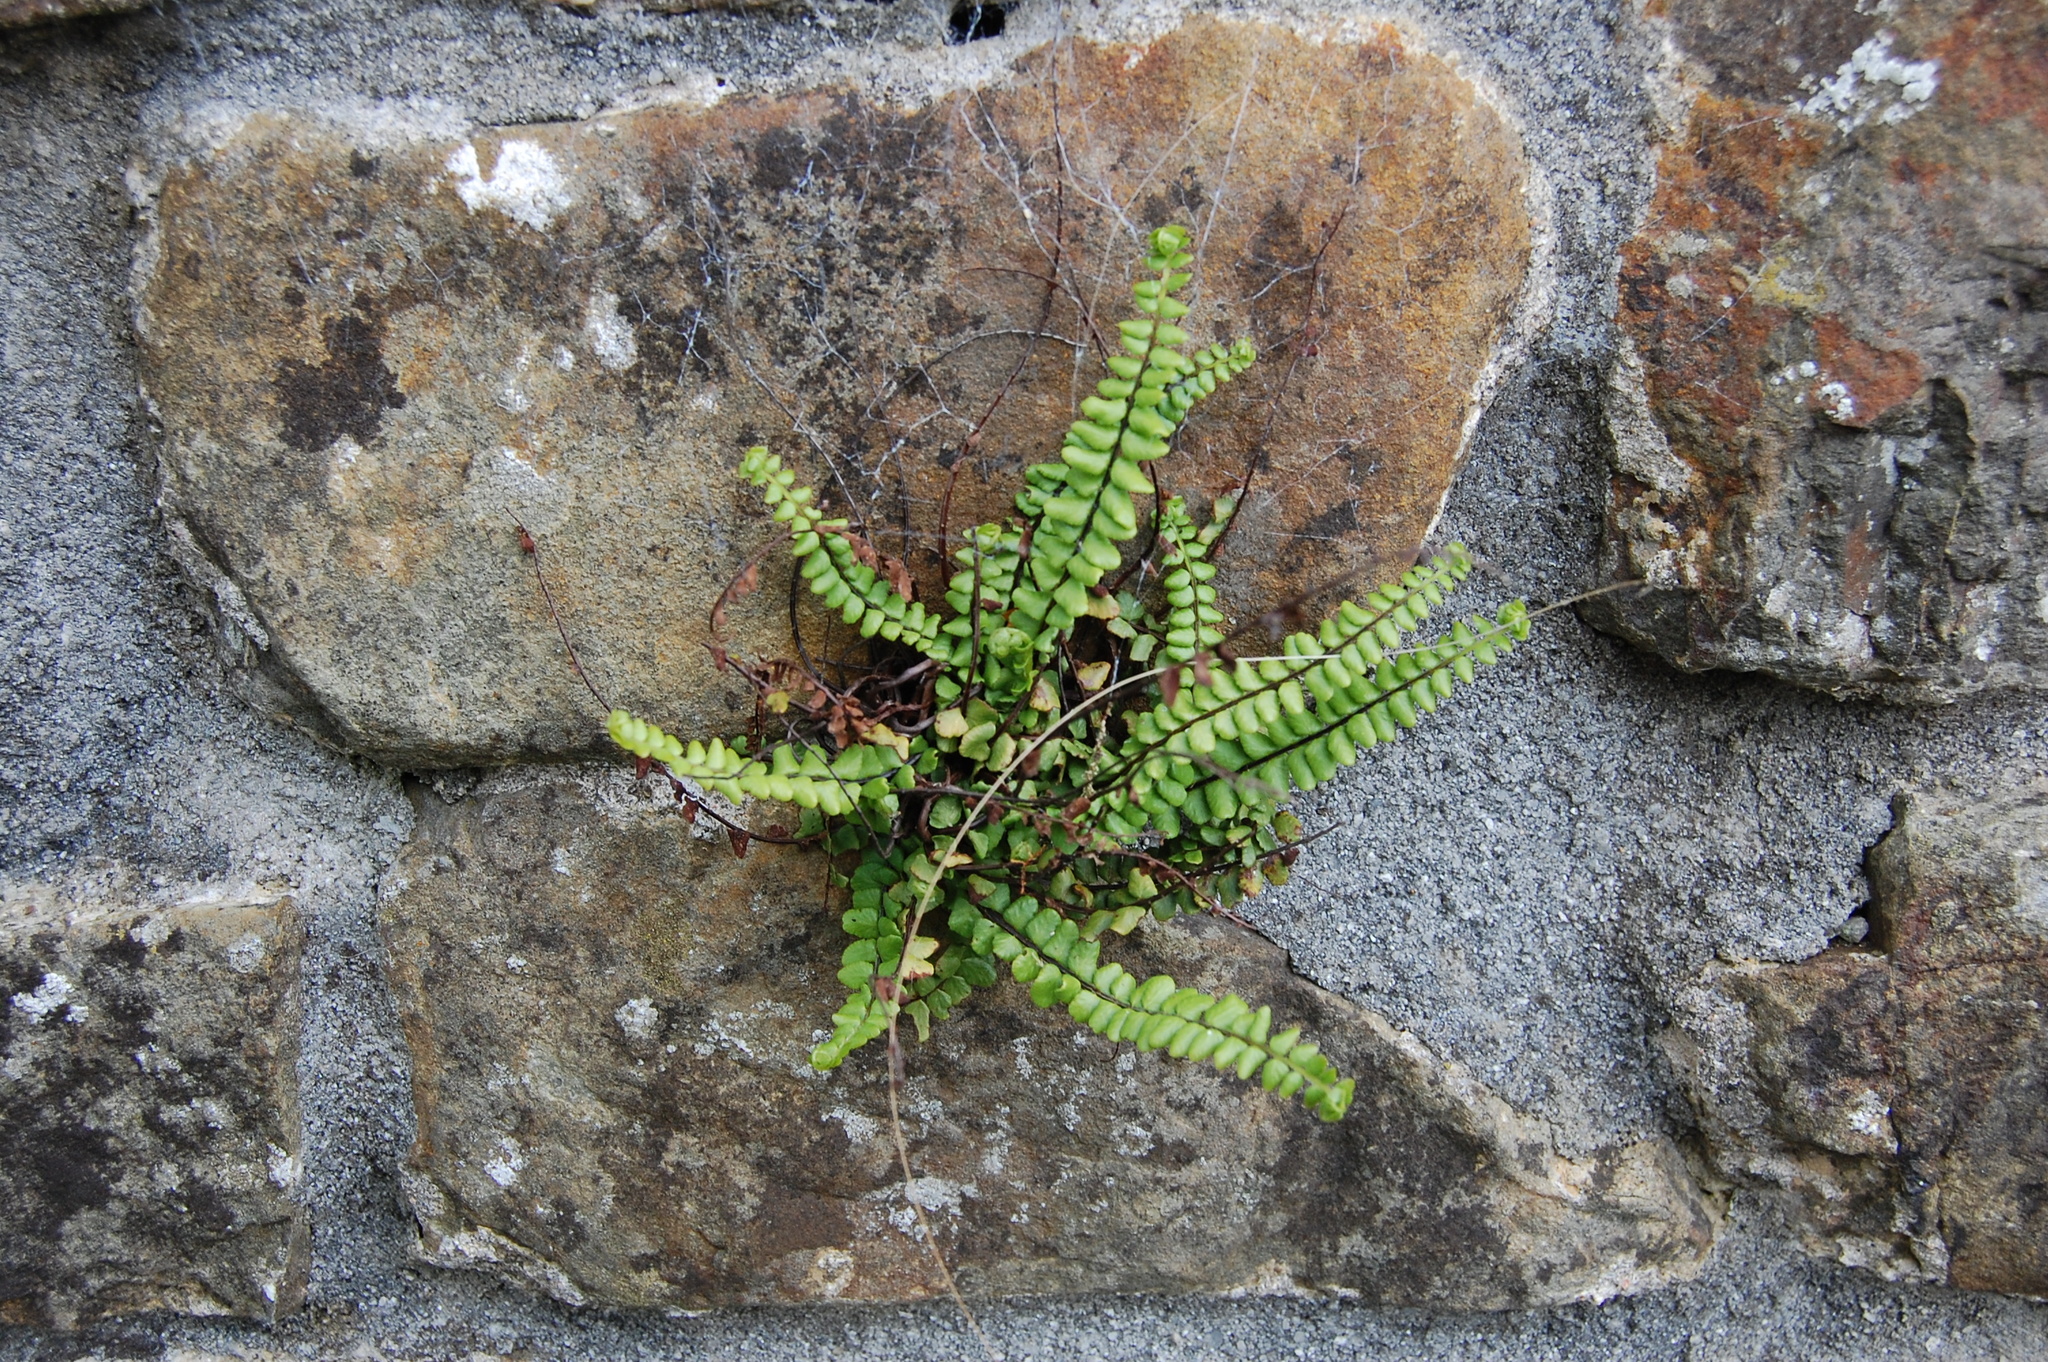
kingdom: Plantae
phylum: Tracheophyta
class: Polypodiopsida
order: Polypodiales
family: Aspleniaceae
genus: Asplenium
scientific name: Asplenium trichomanes
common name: Maidenhair spleenwort
